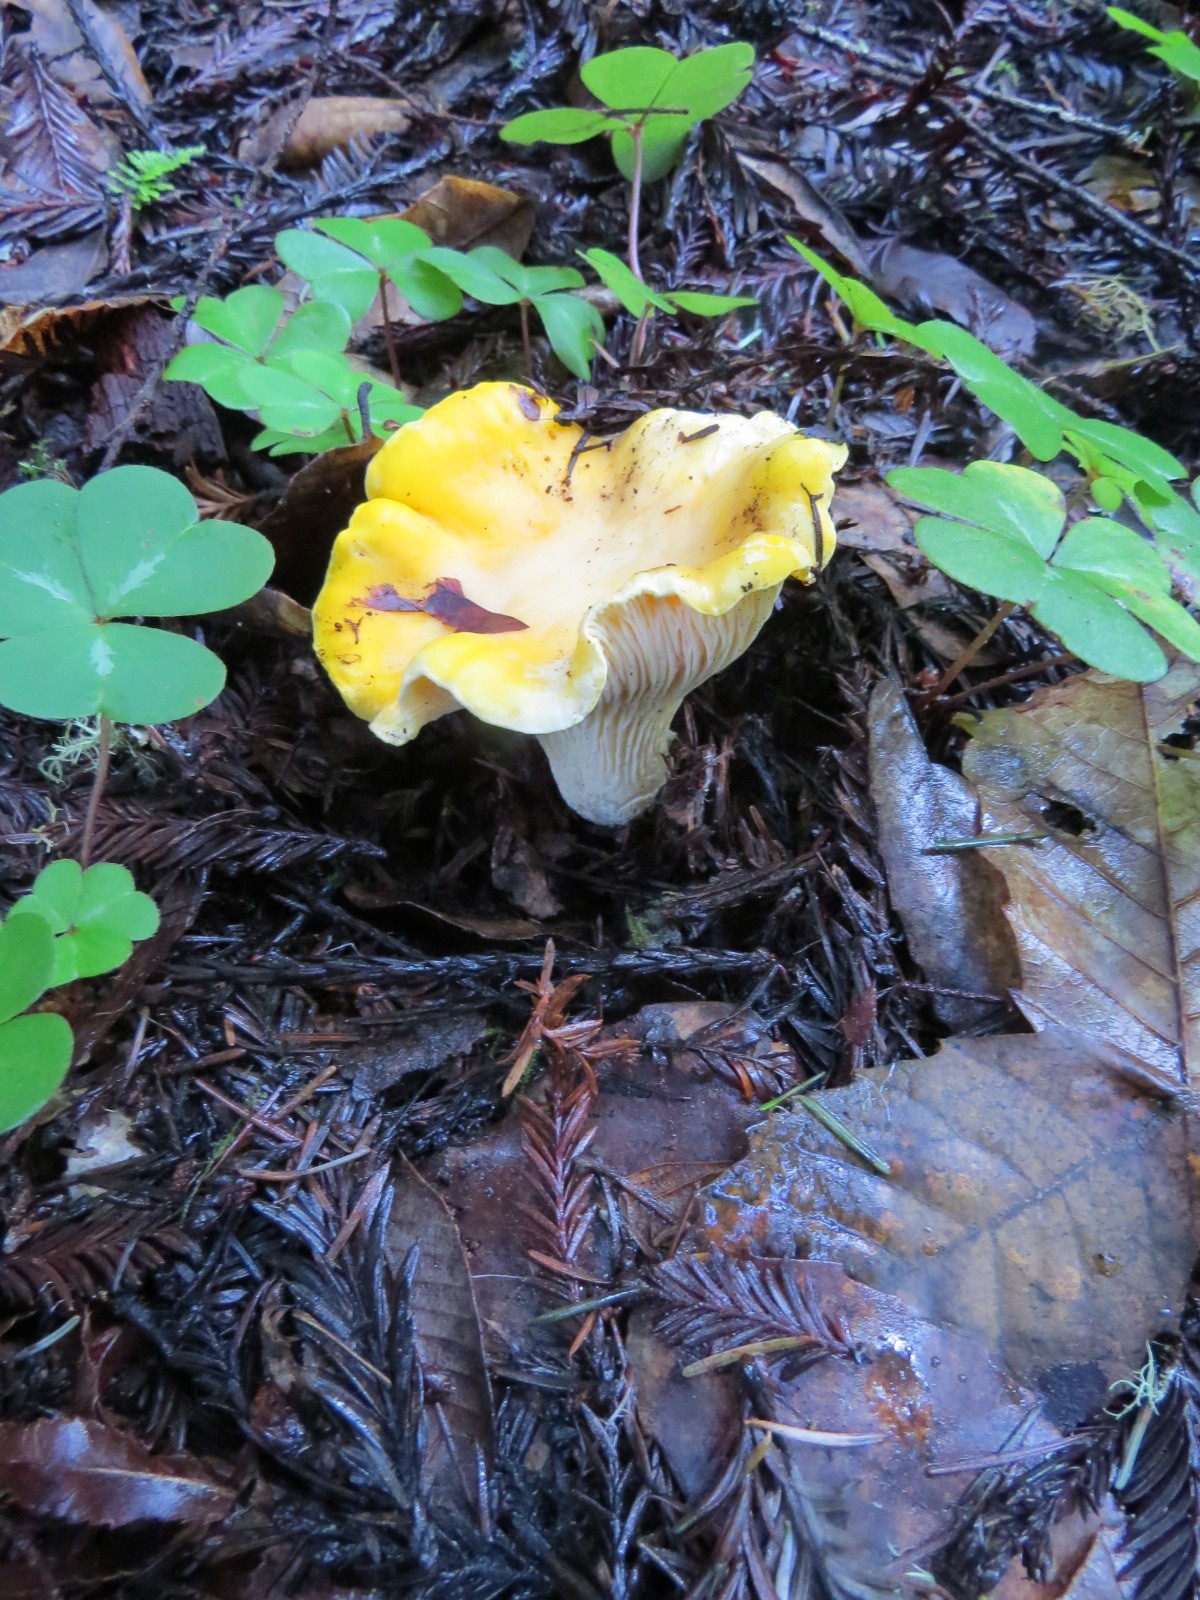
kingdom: Fungi
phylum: Basidiomycota
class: Agaricomycetes
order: Cantharellales
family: Hydnaceae
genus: Cantharellus
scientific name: Cantharellus californicus
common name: California golden chanterelle
